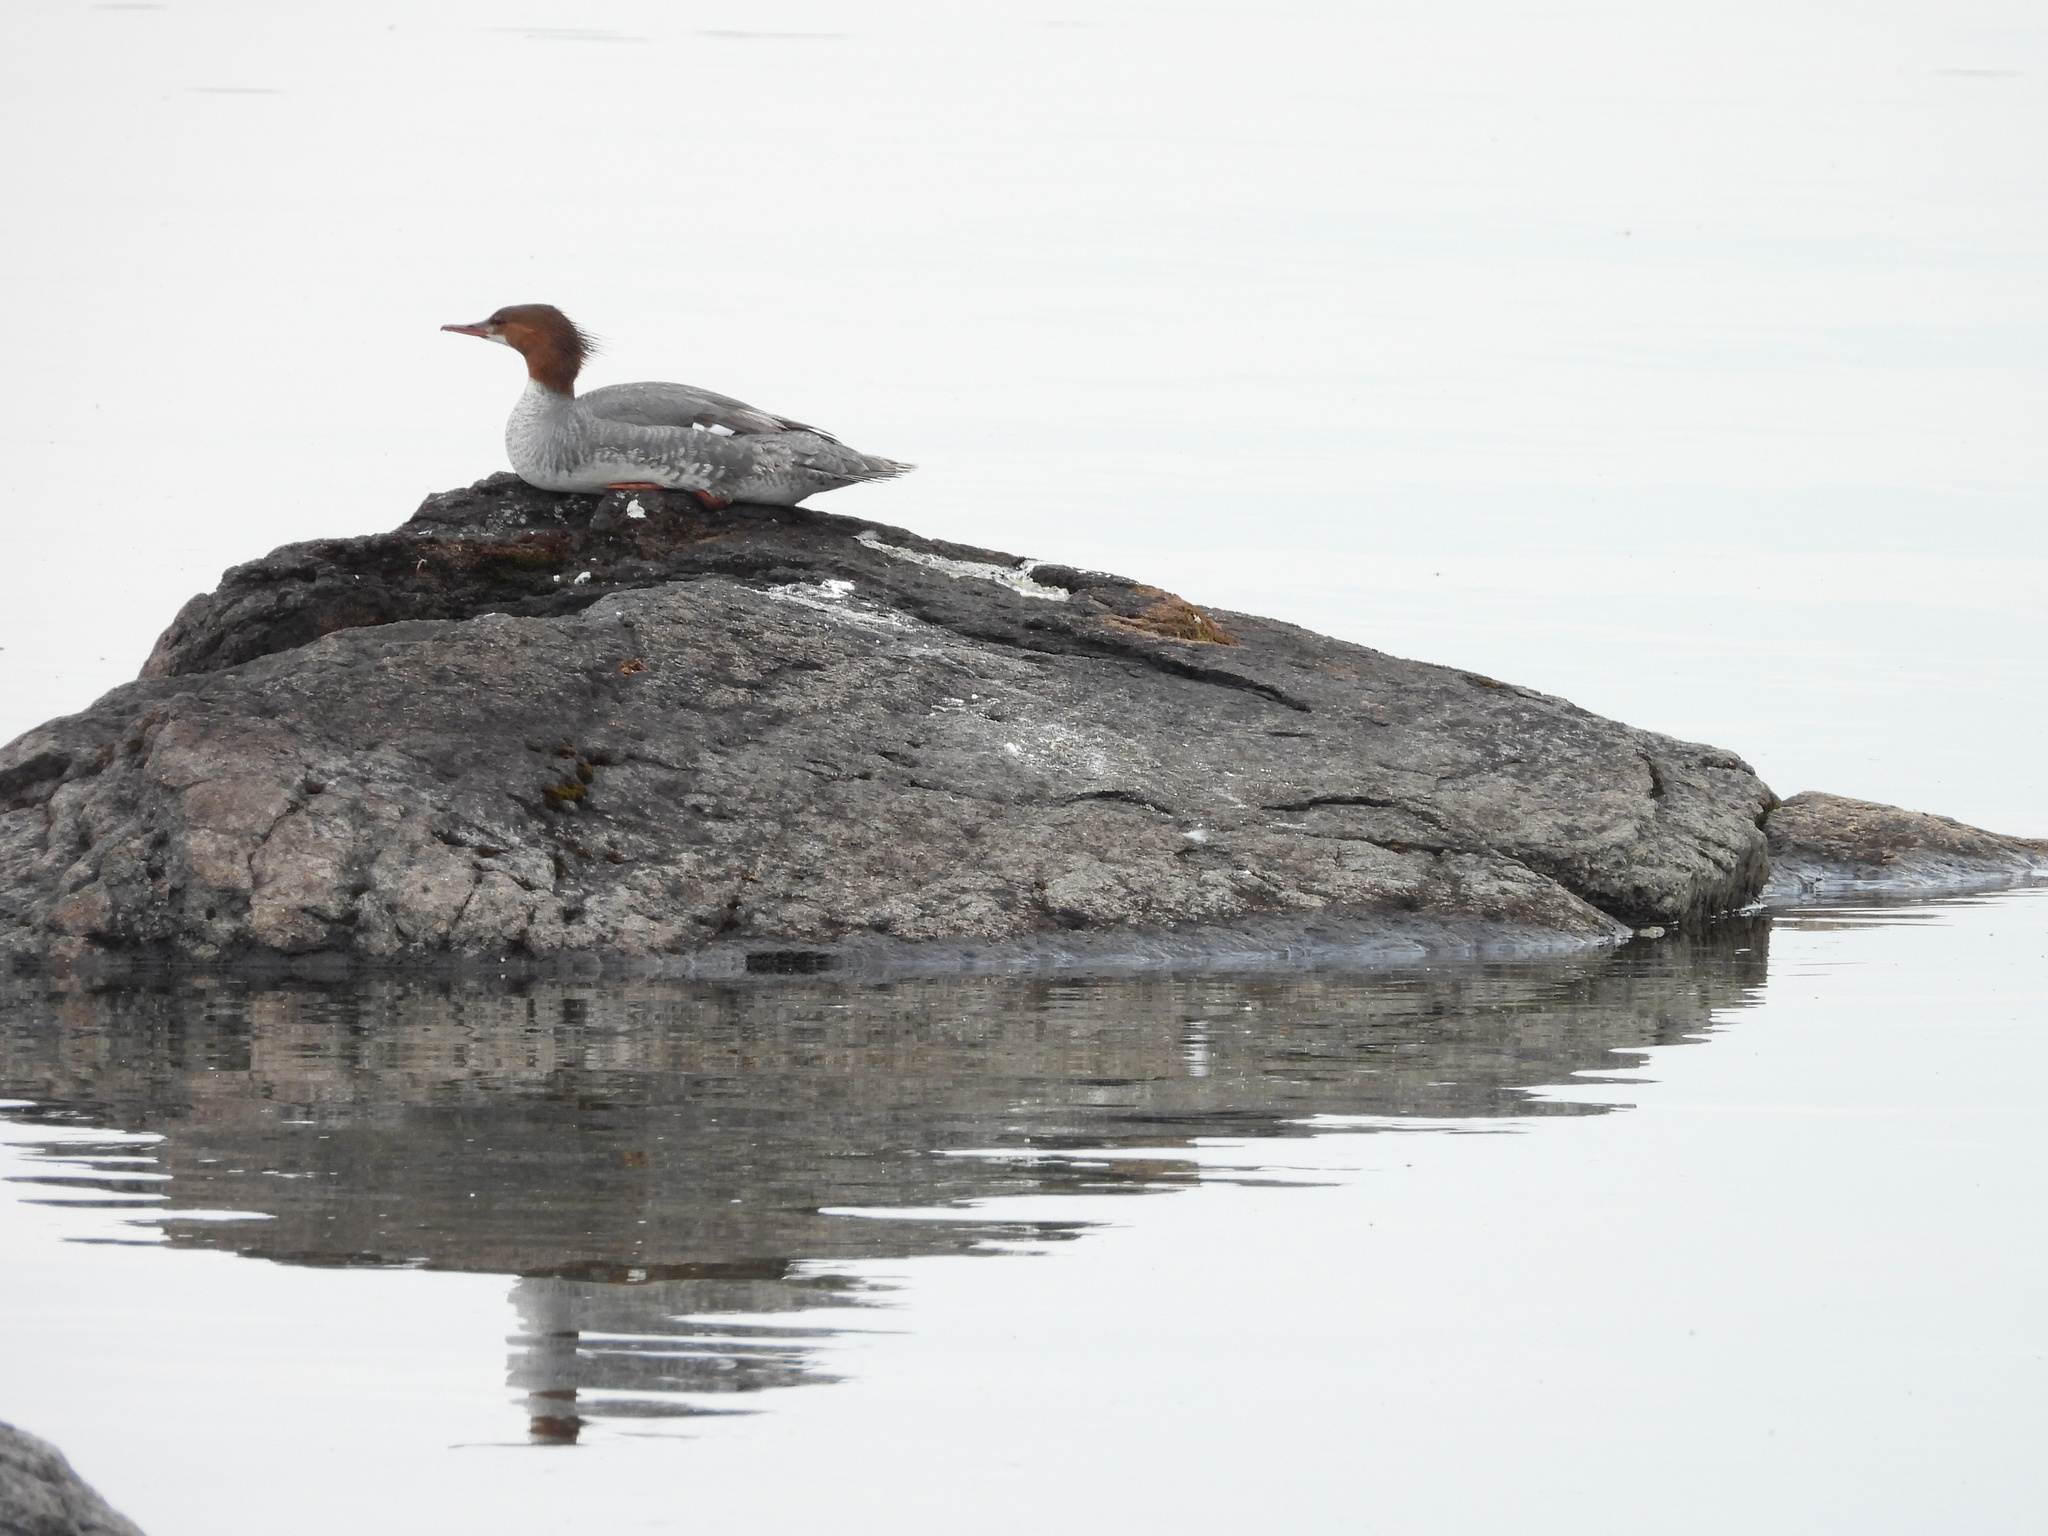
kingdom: Animalia
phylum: Chordata
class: Aves
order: Anseriformes
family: Anatidae
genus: Mergus
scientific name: Mergus merganser
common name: Common merganser
